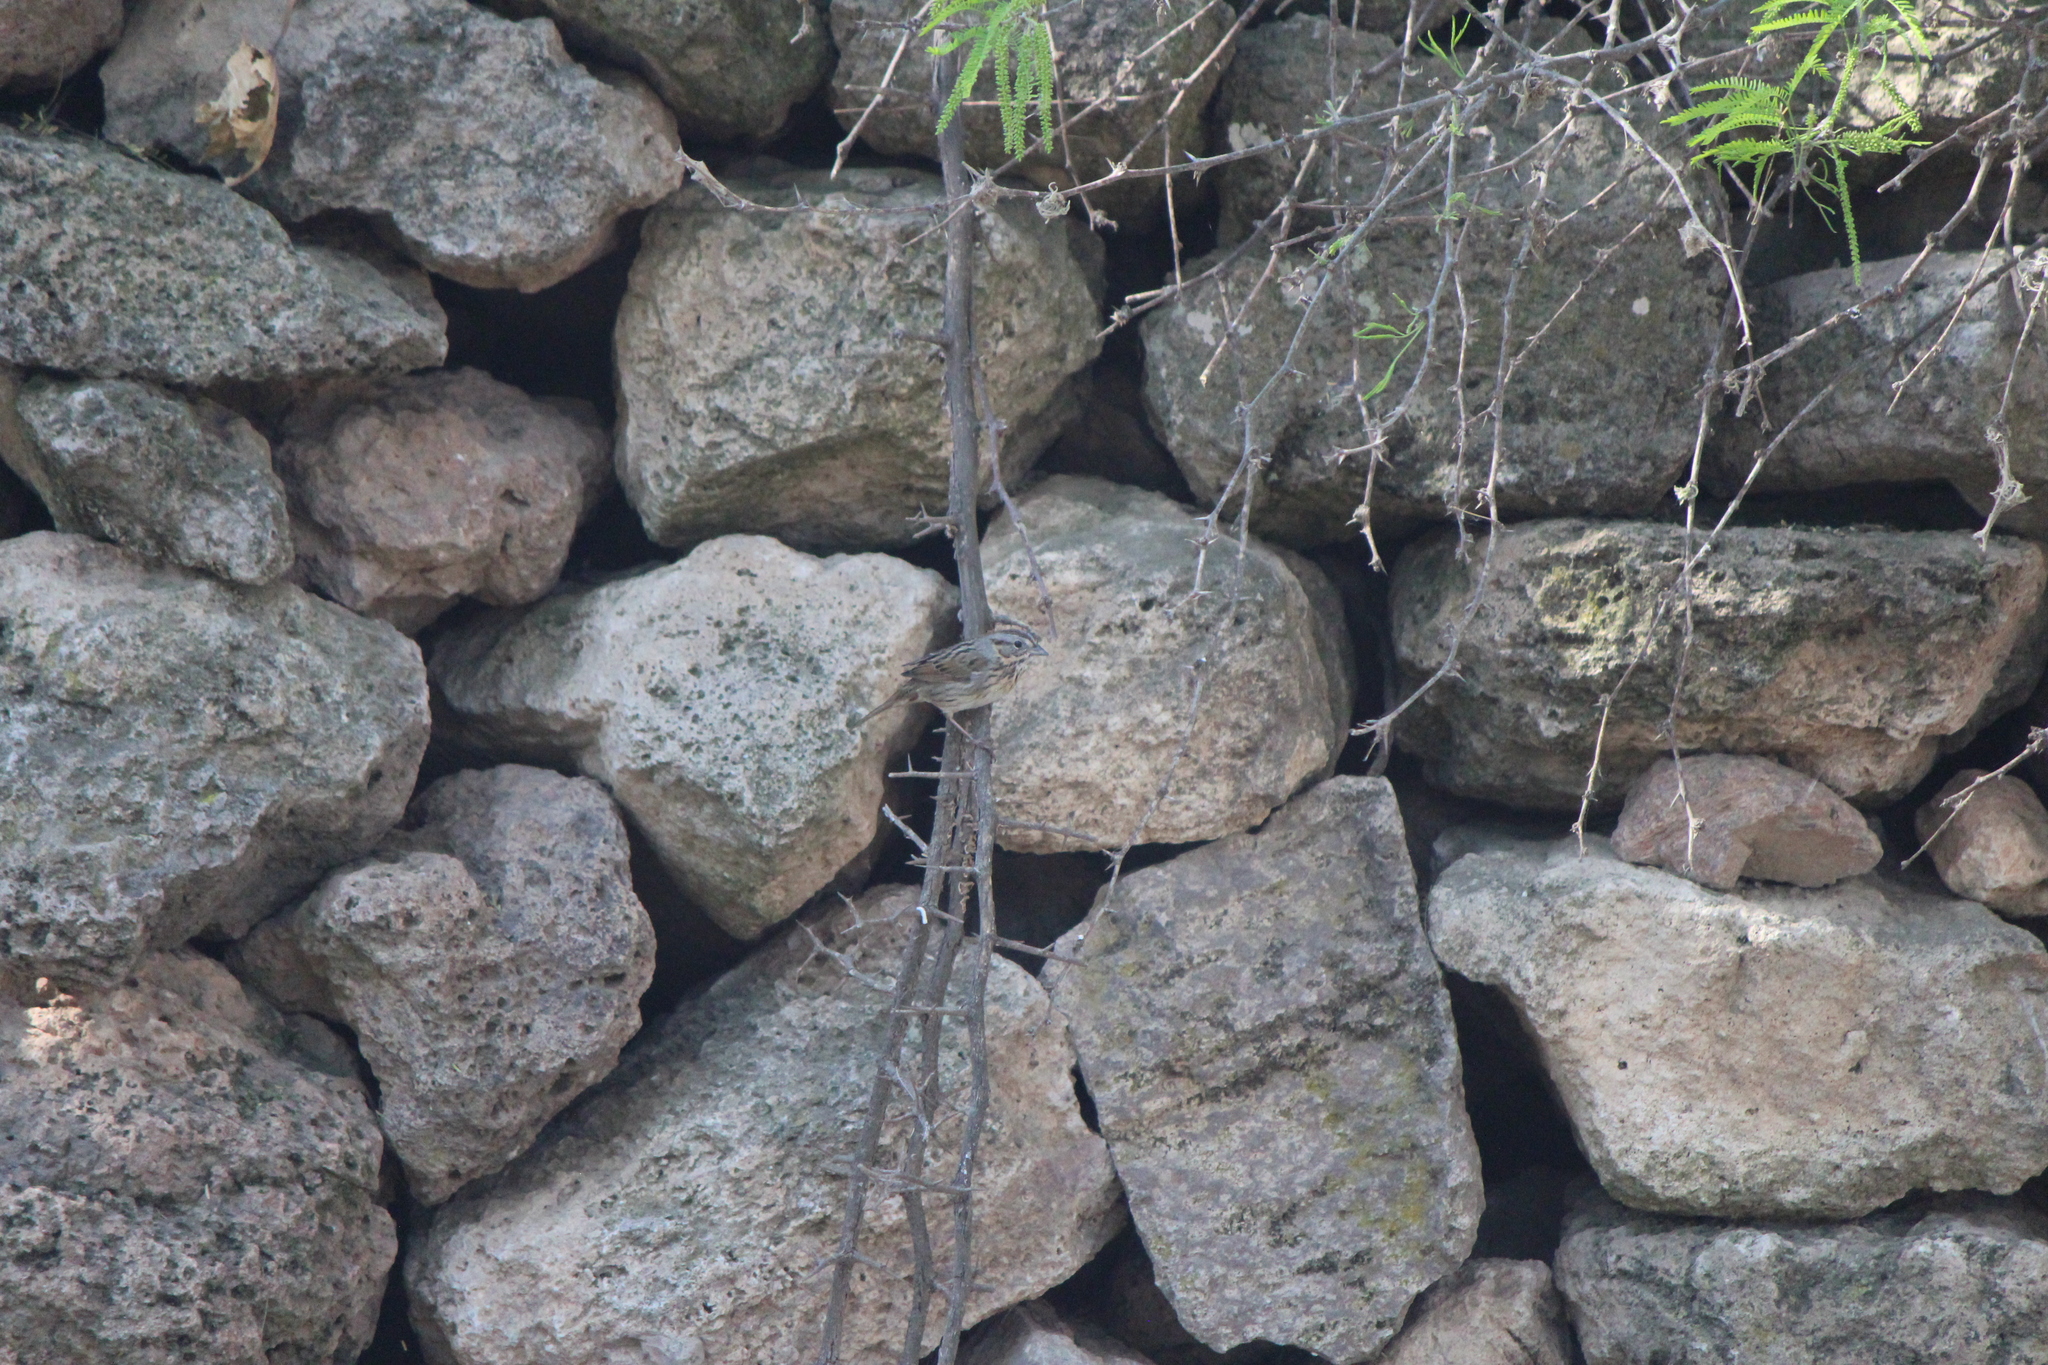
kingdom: Animalia
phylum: Chordata
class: Aves
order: Passeriformes
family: Passerellidae
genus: Melospiza
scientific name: Melospiza lincolnii
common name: Lincoln's sparrow
